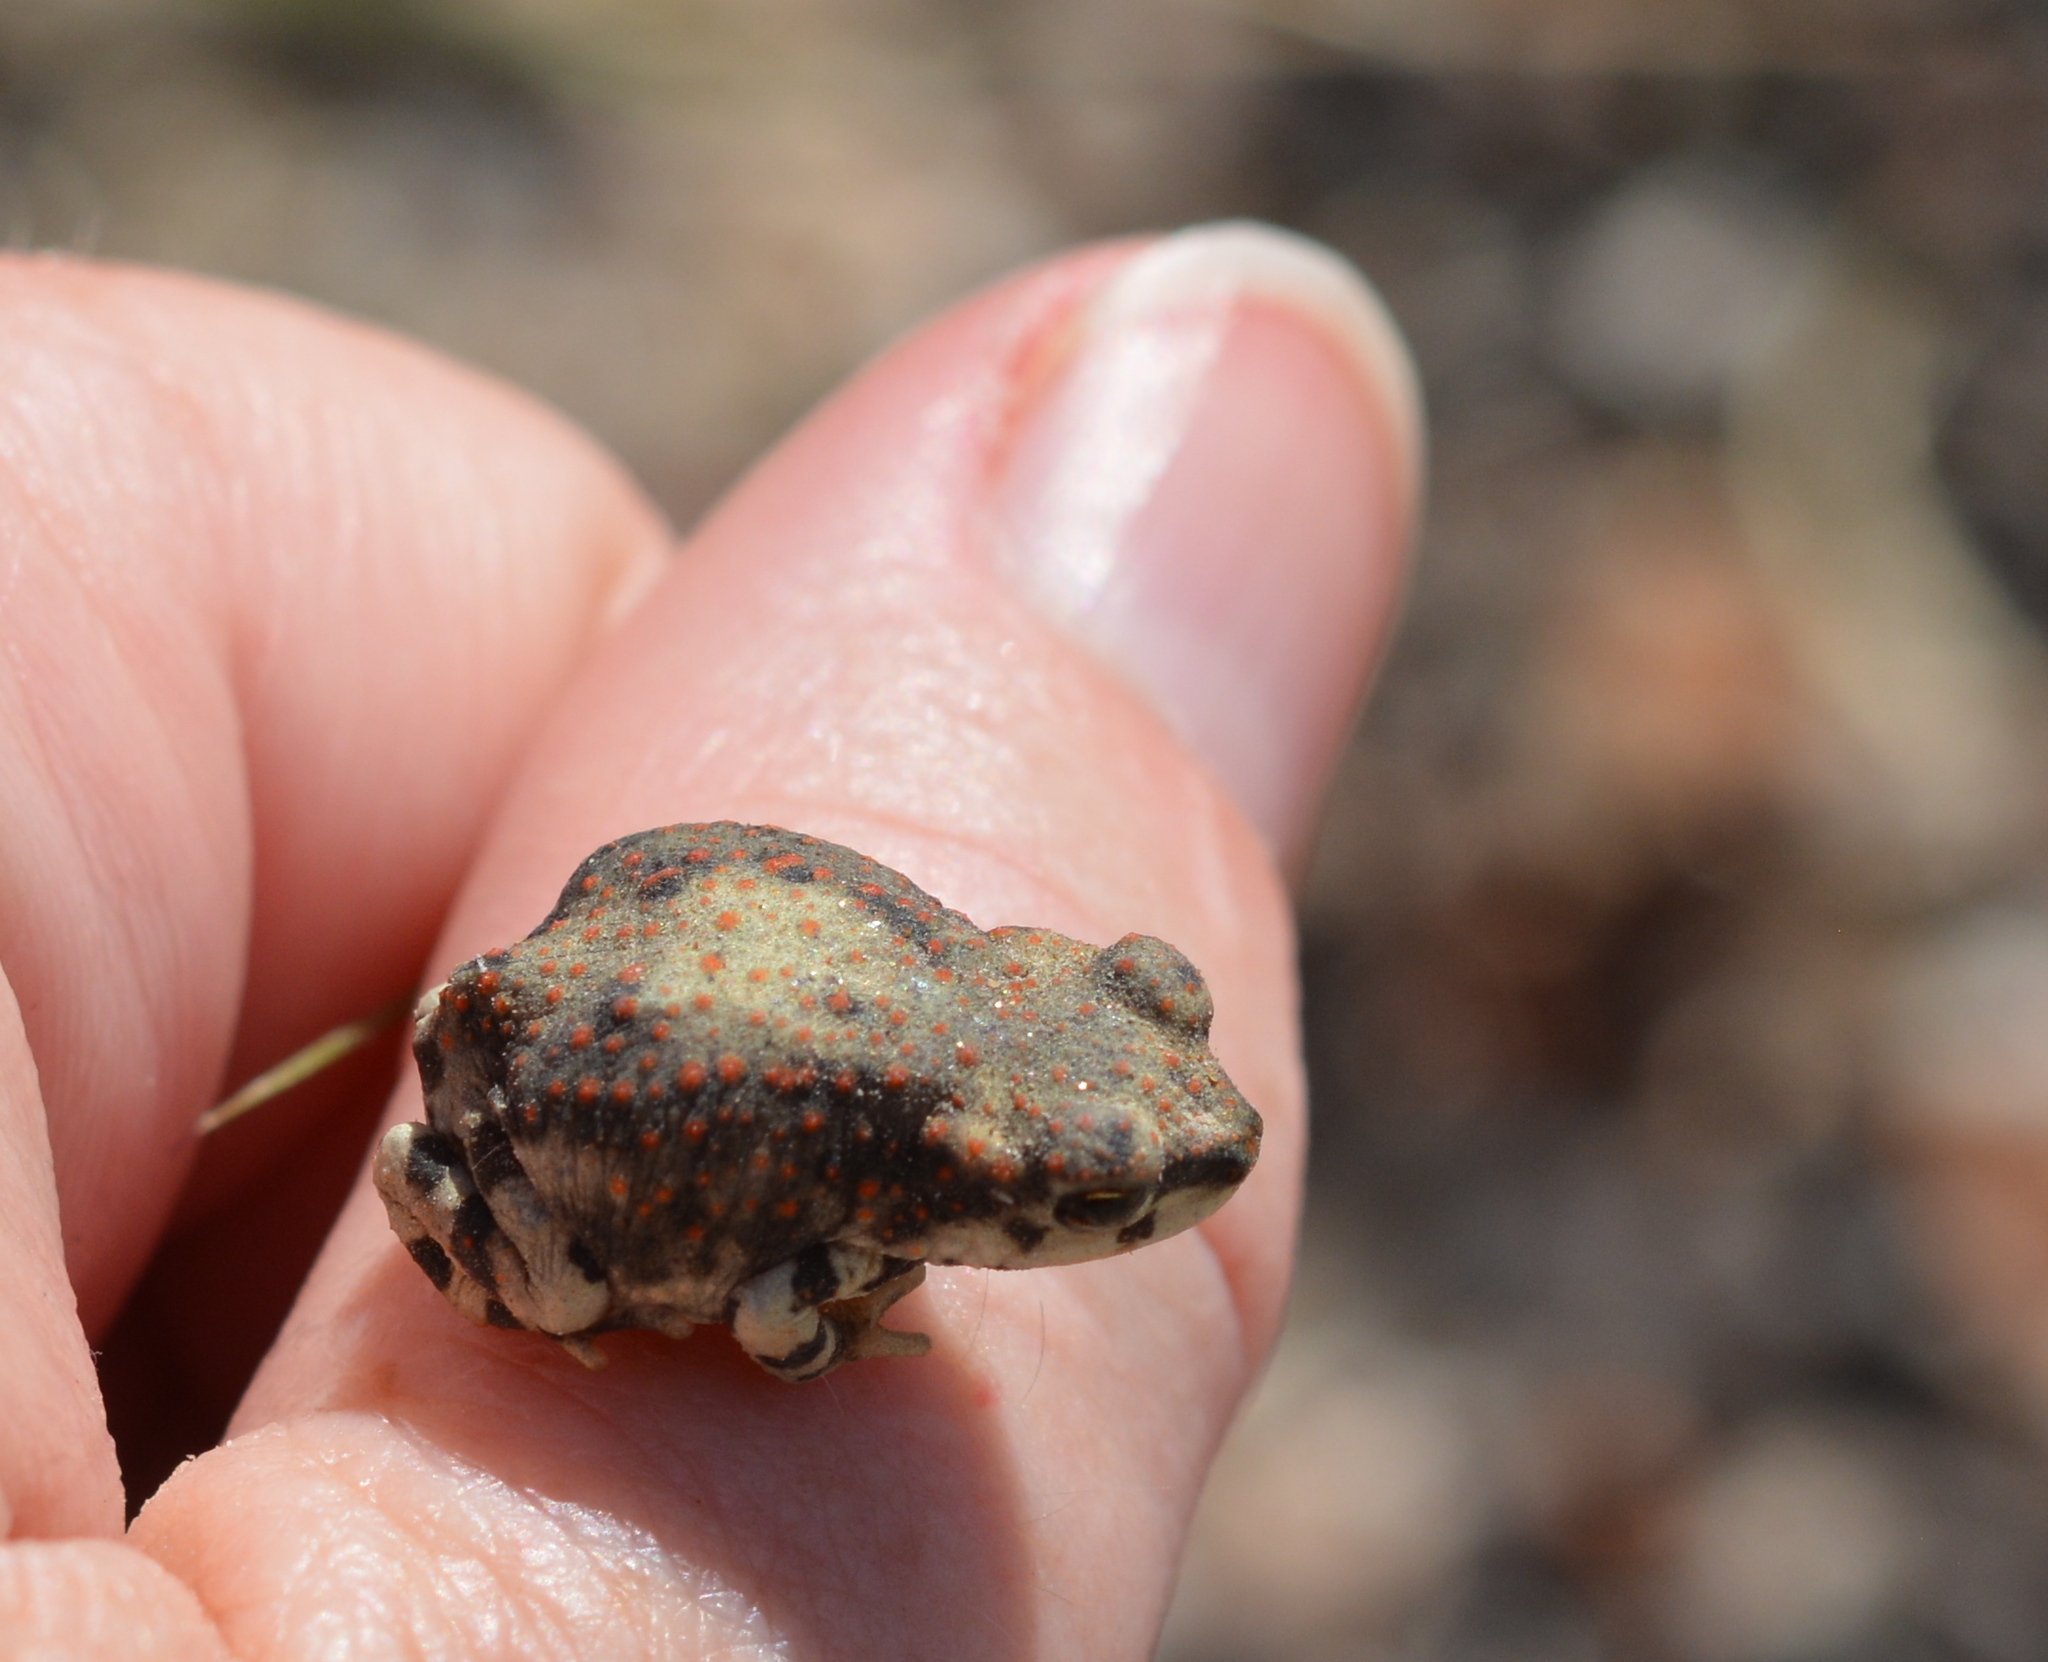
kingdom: Animalia
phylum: Chordata
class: Amphibia
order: Anura
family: Bufonidae
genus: Anaxyrus
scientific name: Anaxyrus punctatus
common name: Red-spotted toad
